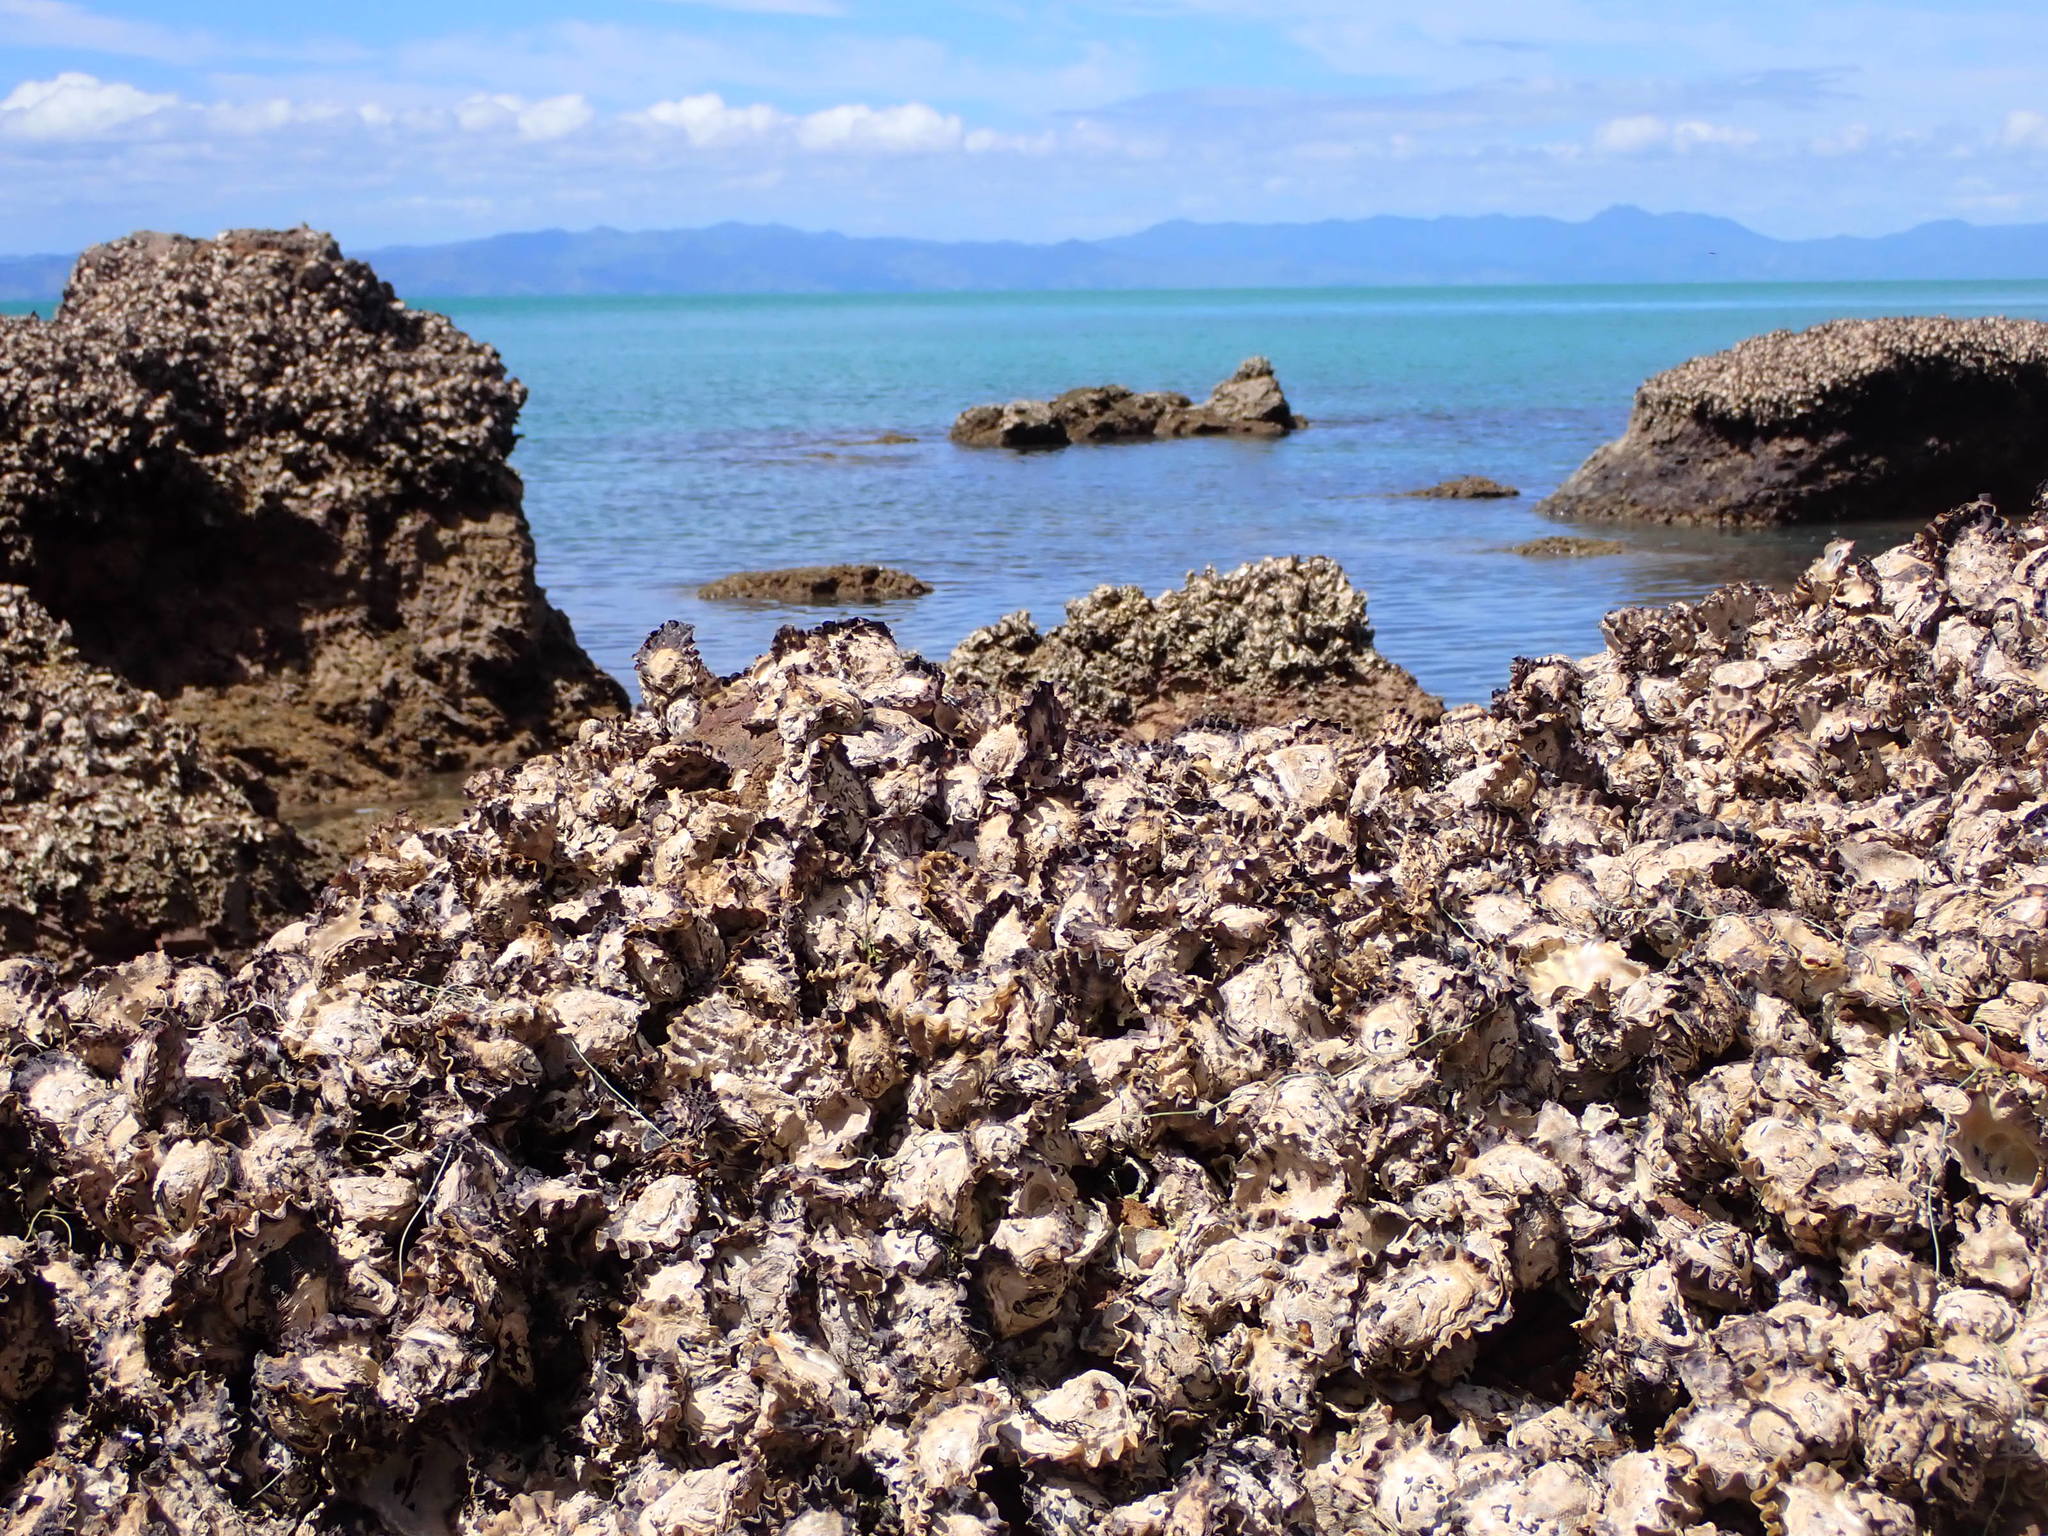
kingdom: Animalia
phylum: Mollusca
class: Bivalvia
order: Ostreida
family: Ostreidae
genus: Saccostrea
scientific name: Saccostrea glomerata
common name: Sydney cupped oyster
